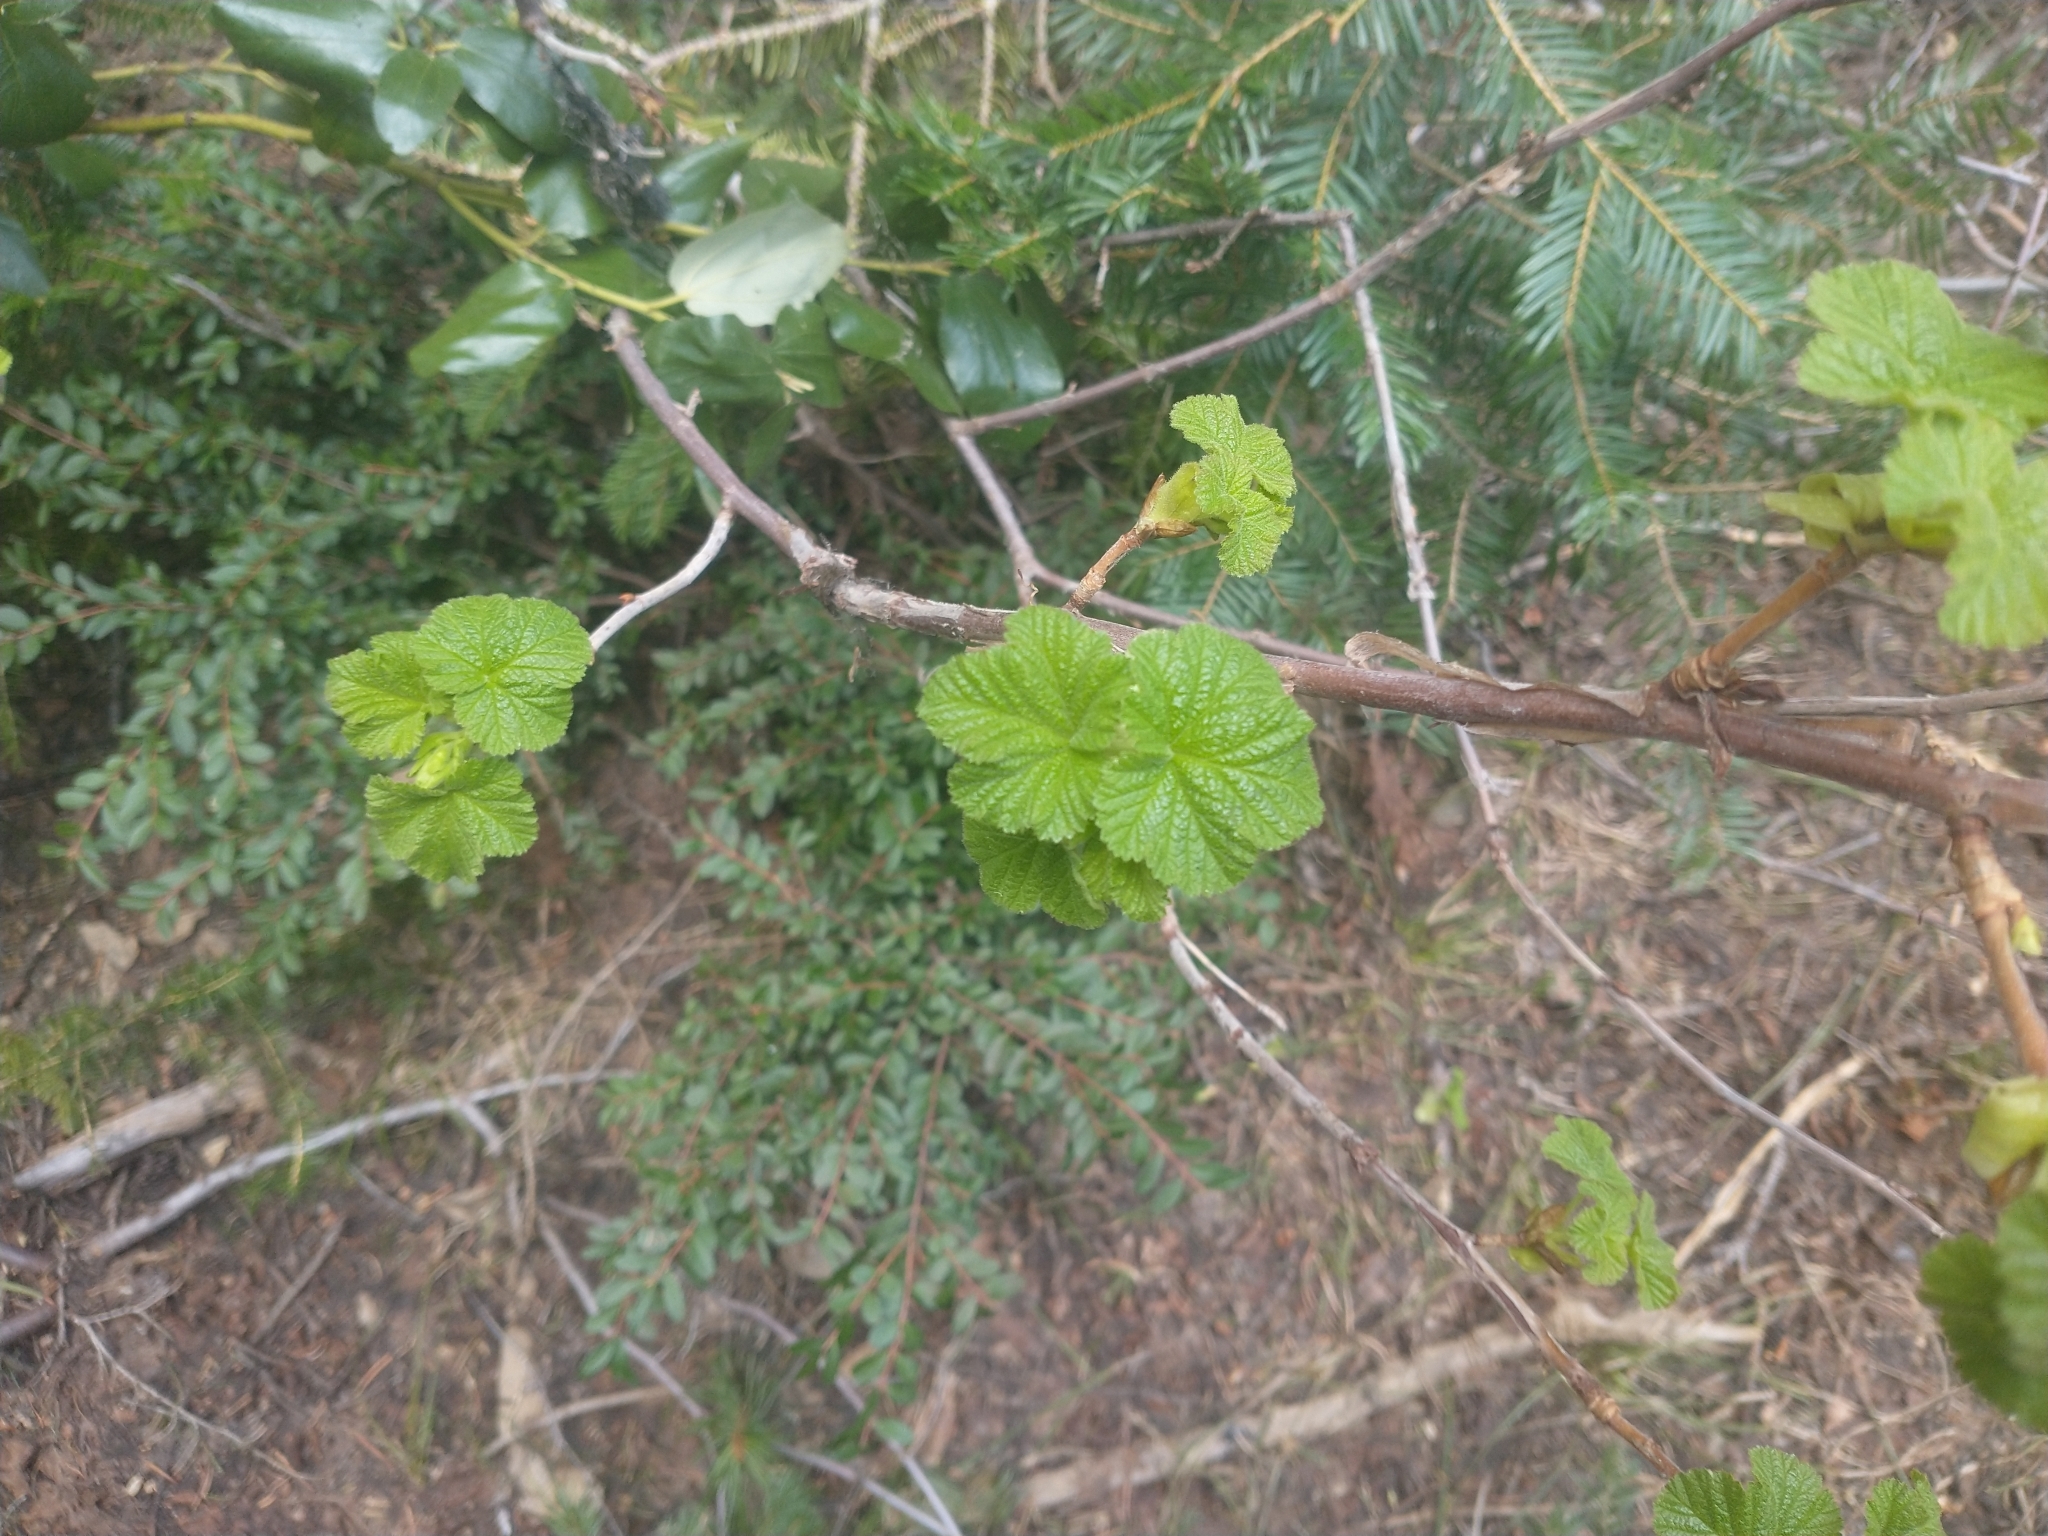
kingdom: Plantae
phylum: Tracheophyta
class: Magnoliopsida
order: Saxifragales
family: Grossulariaceae
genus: Ribes
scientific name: Ribes viscosissimum
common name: Sticky currant
